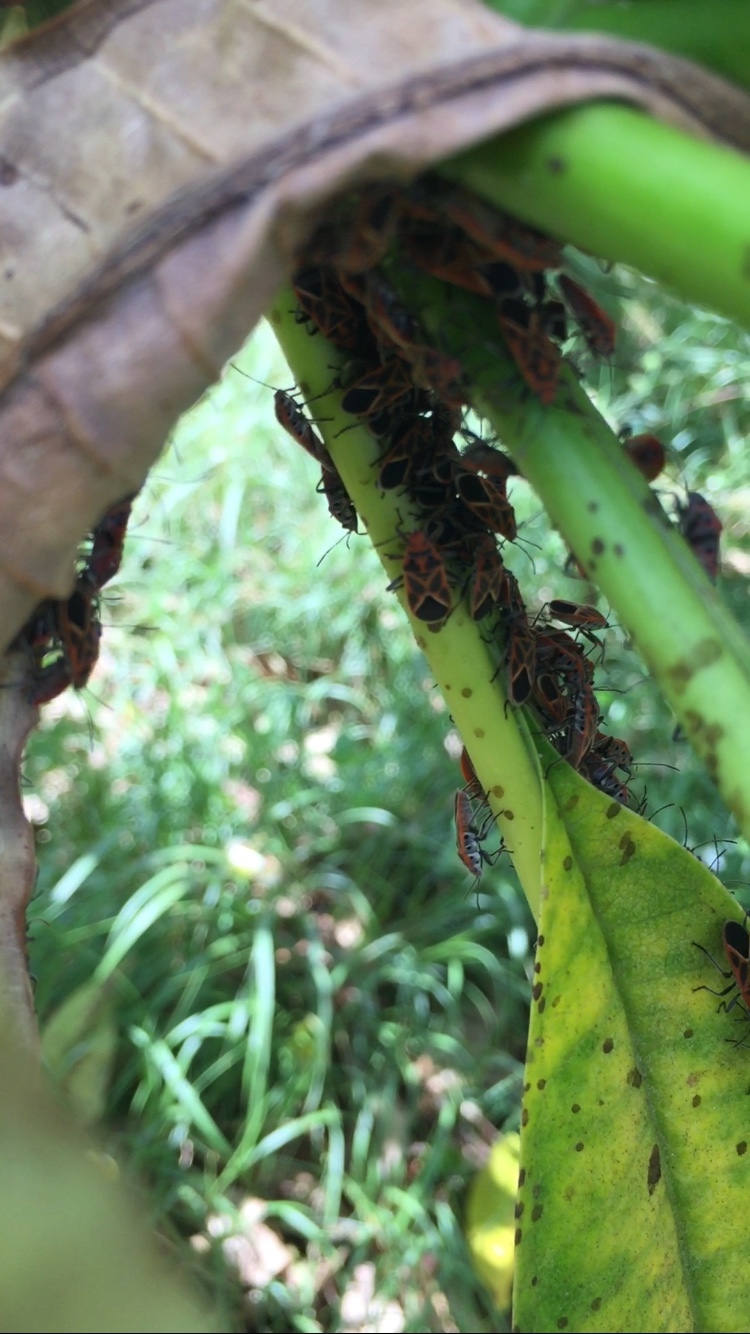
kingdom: Animalia
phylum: Arthropoda
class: Insecta
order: Hemiptera
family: Lygaeidae
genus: Graptostethus
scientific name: Graptostethus servus
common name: Lygaeid bug
